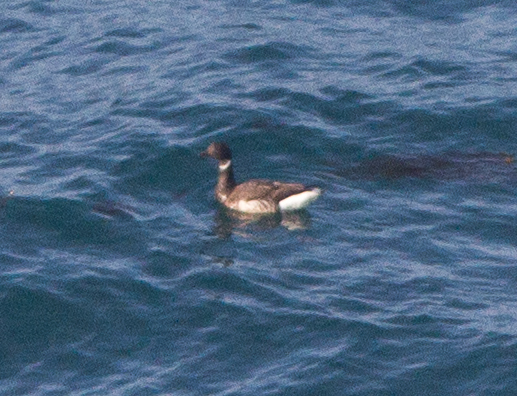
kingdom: Animalia
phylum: Chordata
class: Aves
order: Anseriformes
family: Anatidae
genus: Branta
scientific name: Branta bernicla
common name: Brant goose
